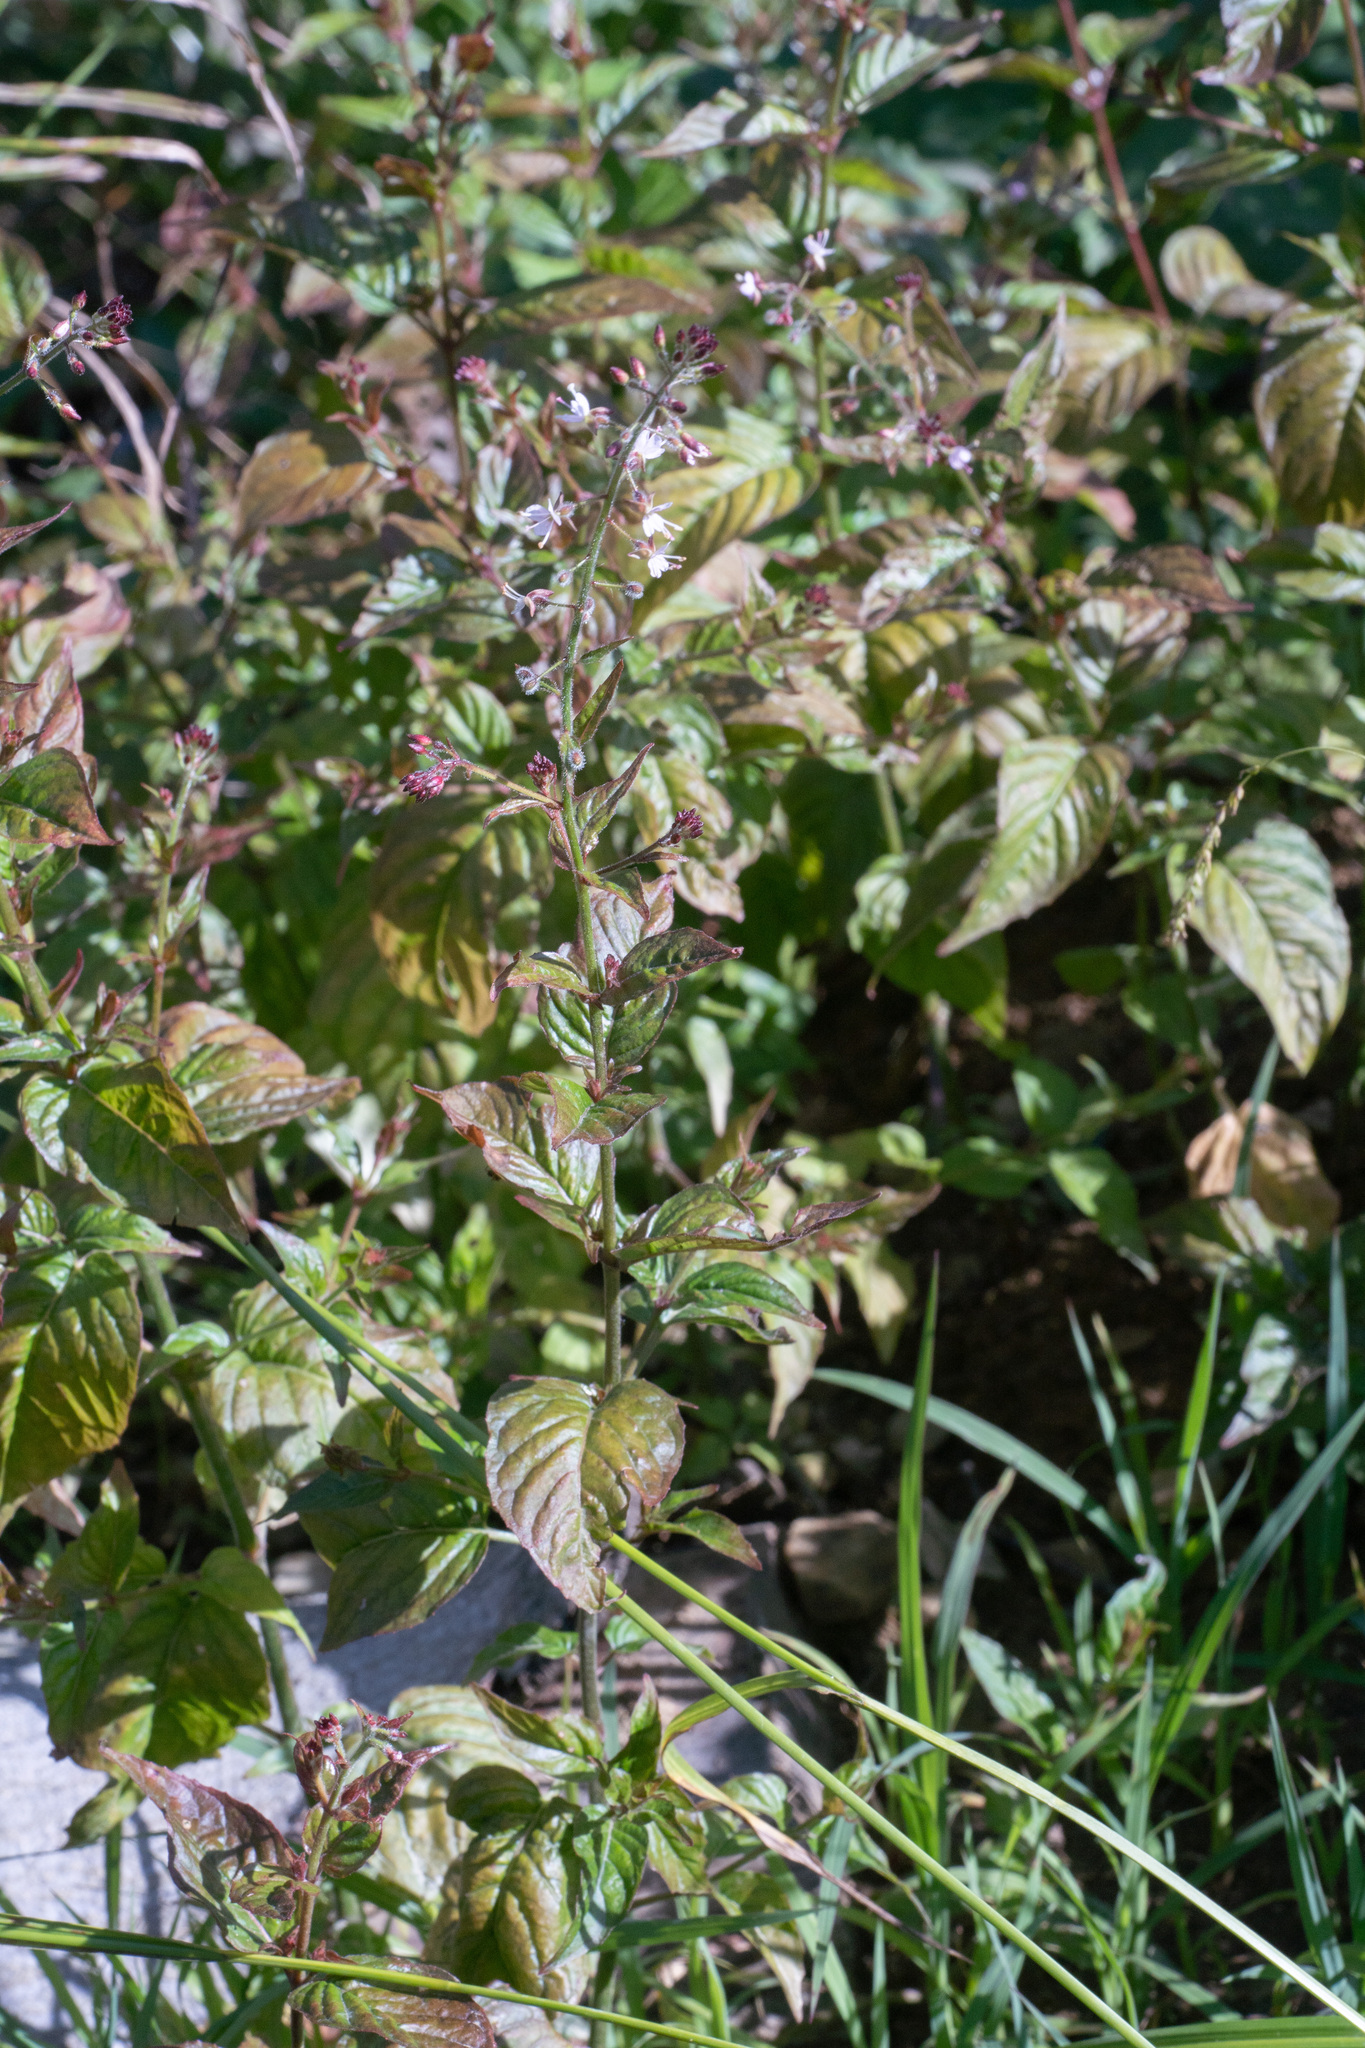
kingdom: Plantae
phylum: Tracheophyta
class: Magnoliopsida
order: Myrtales
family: Onagraceae
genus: Circaea
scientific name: Circaea lutetiana
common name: Enchanter's-nightshade
